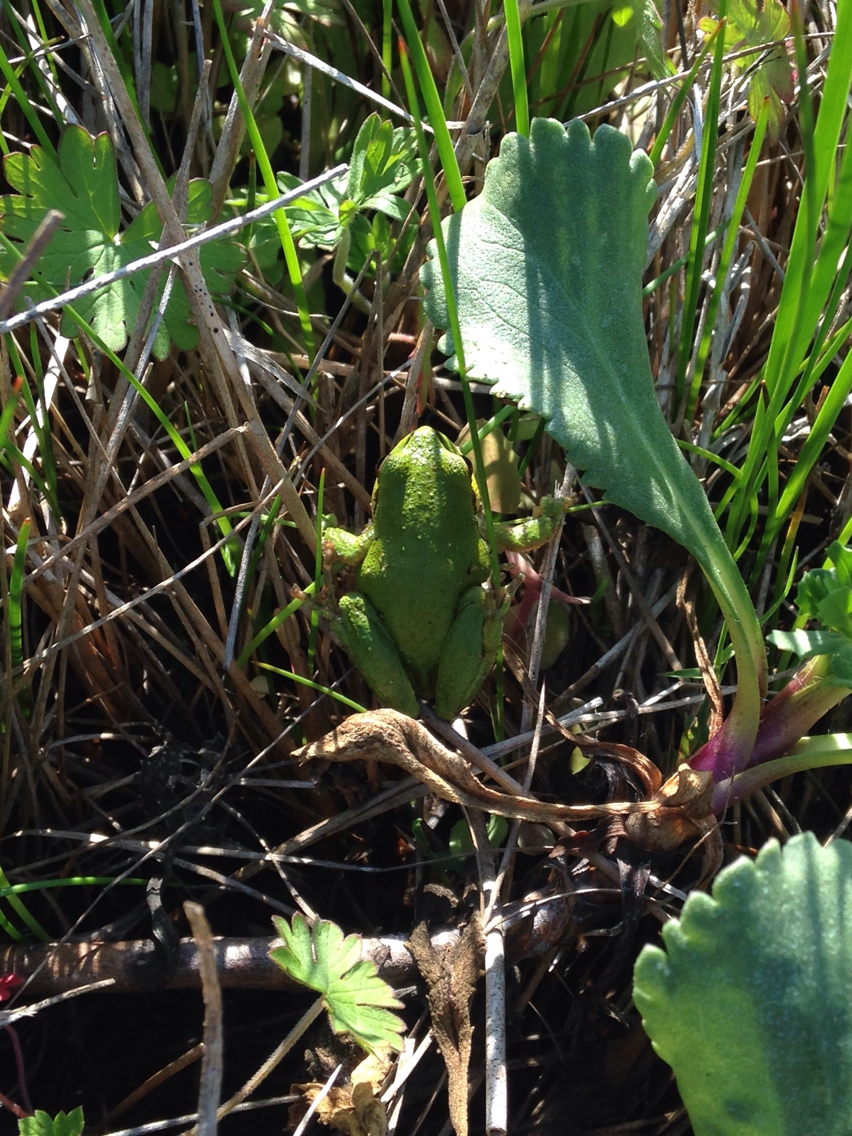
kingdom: Animalia
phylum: Chordata
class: Amphibia
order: Anura
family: Hylidae
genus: Pseudacris
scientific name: Pseudacris regilla
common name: Pacific chorus frog
